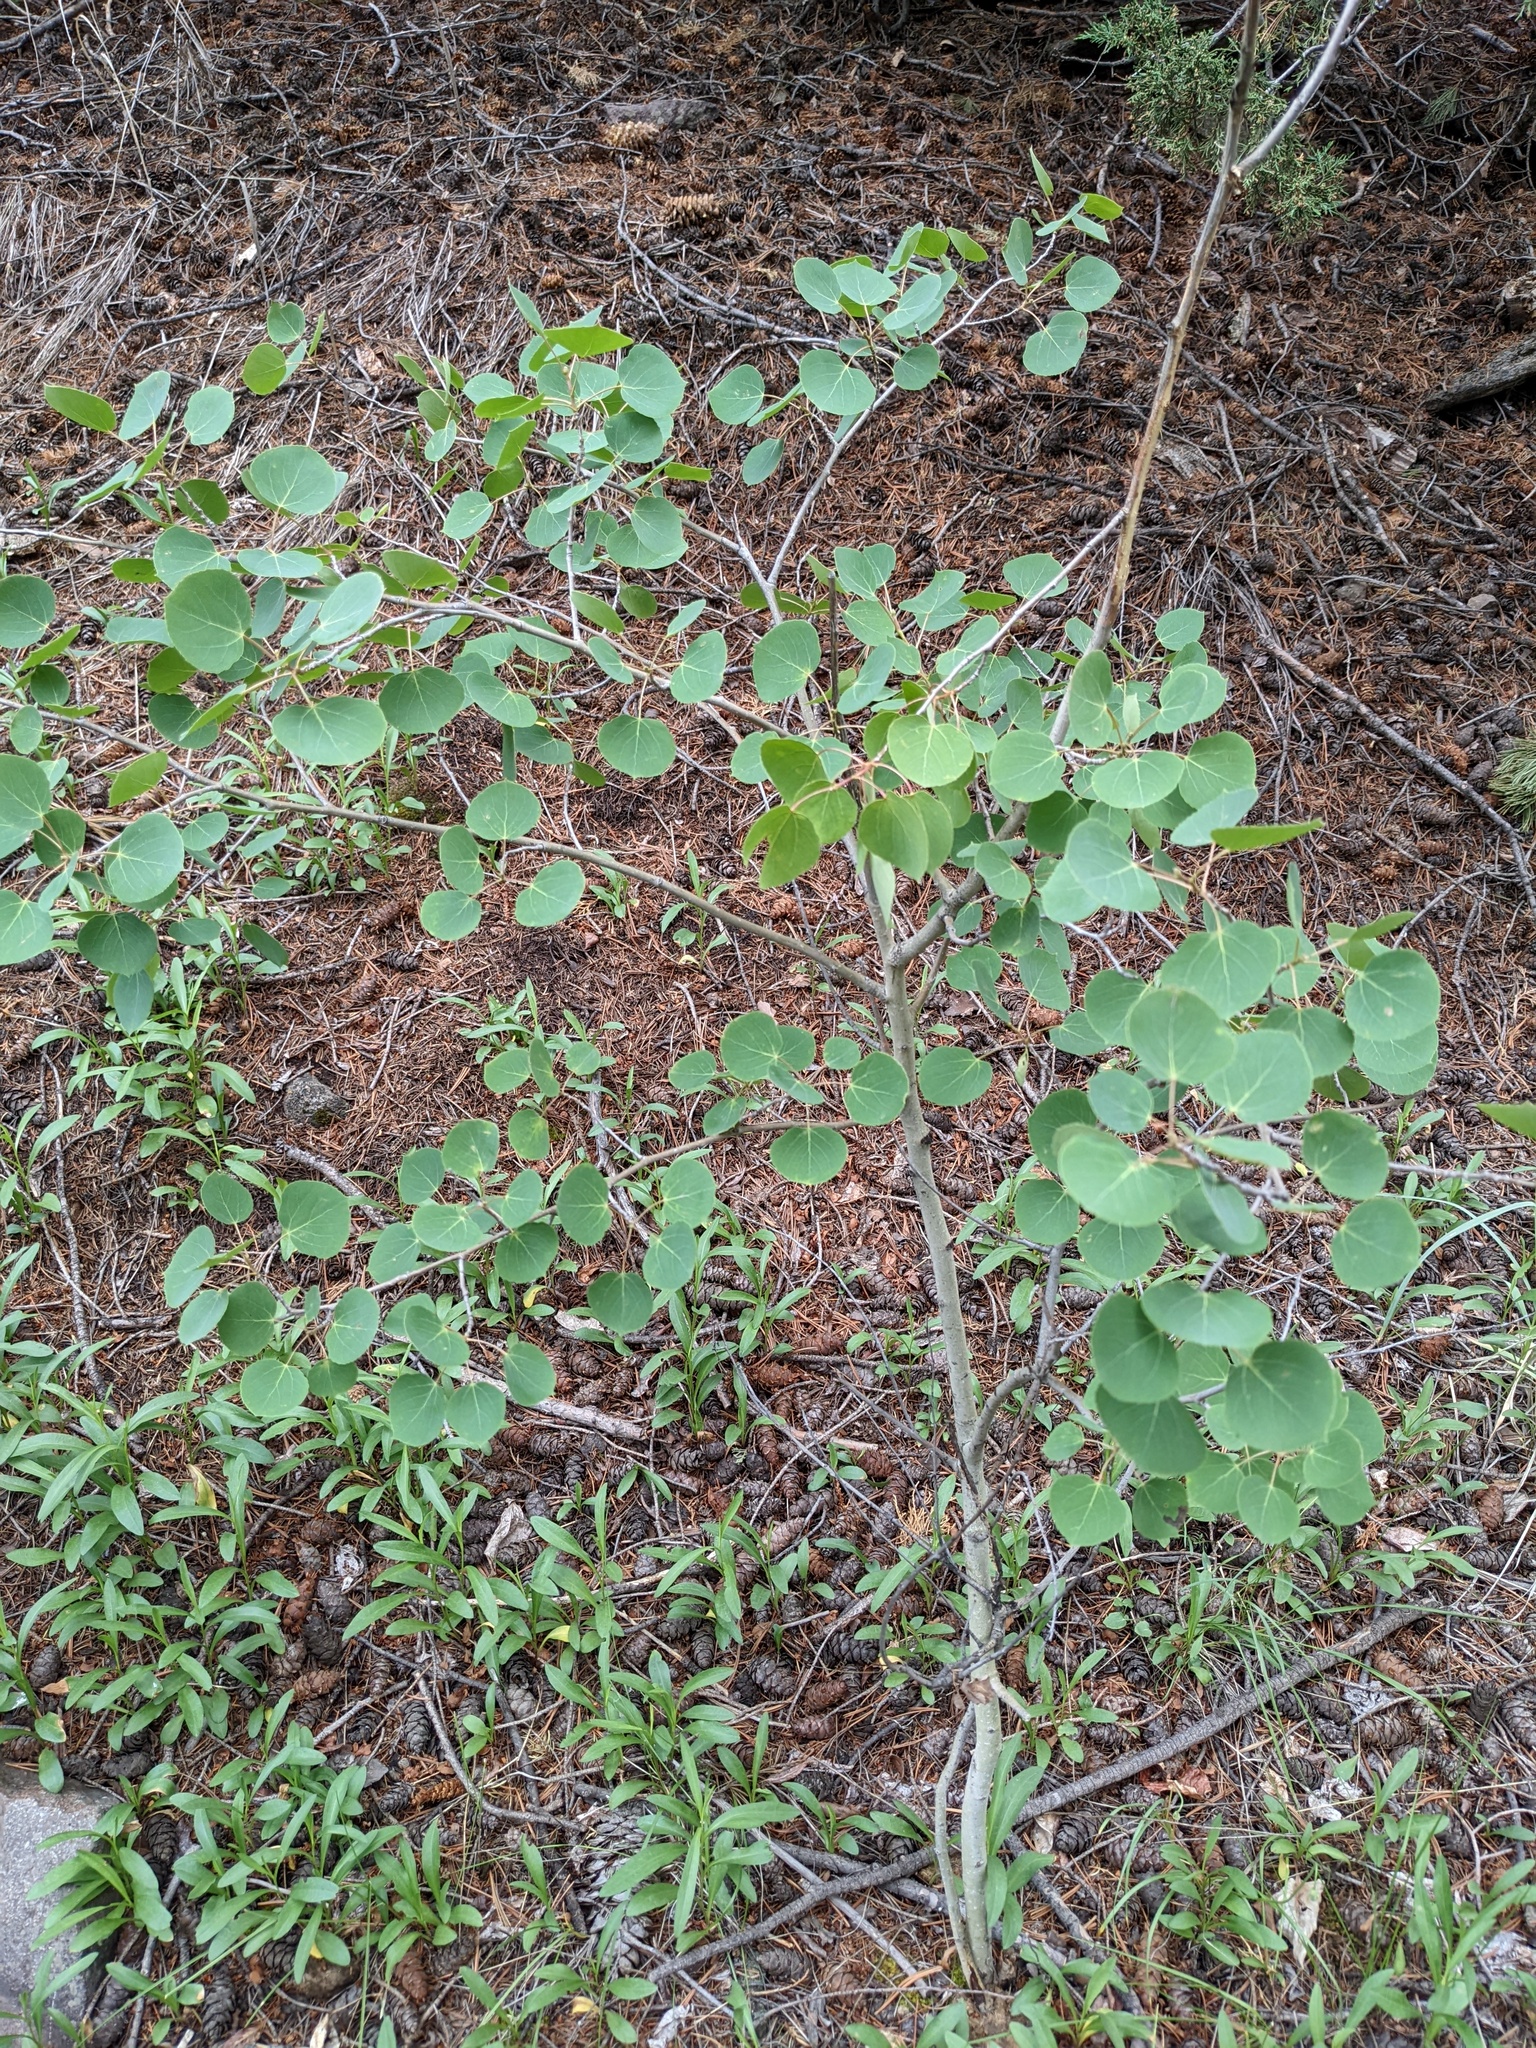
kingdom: Plantae
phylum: Tracheophyta
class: Magnoliopsida
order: Malpighiales
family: Salicaceae
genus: Populus
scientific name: Populus tremuloides
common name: Quaking aspen
